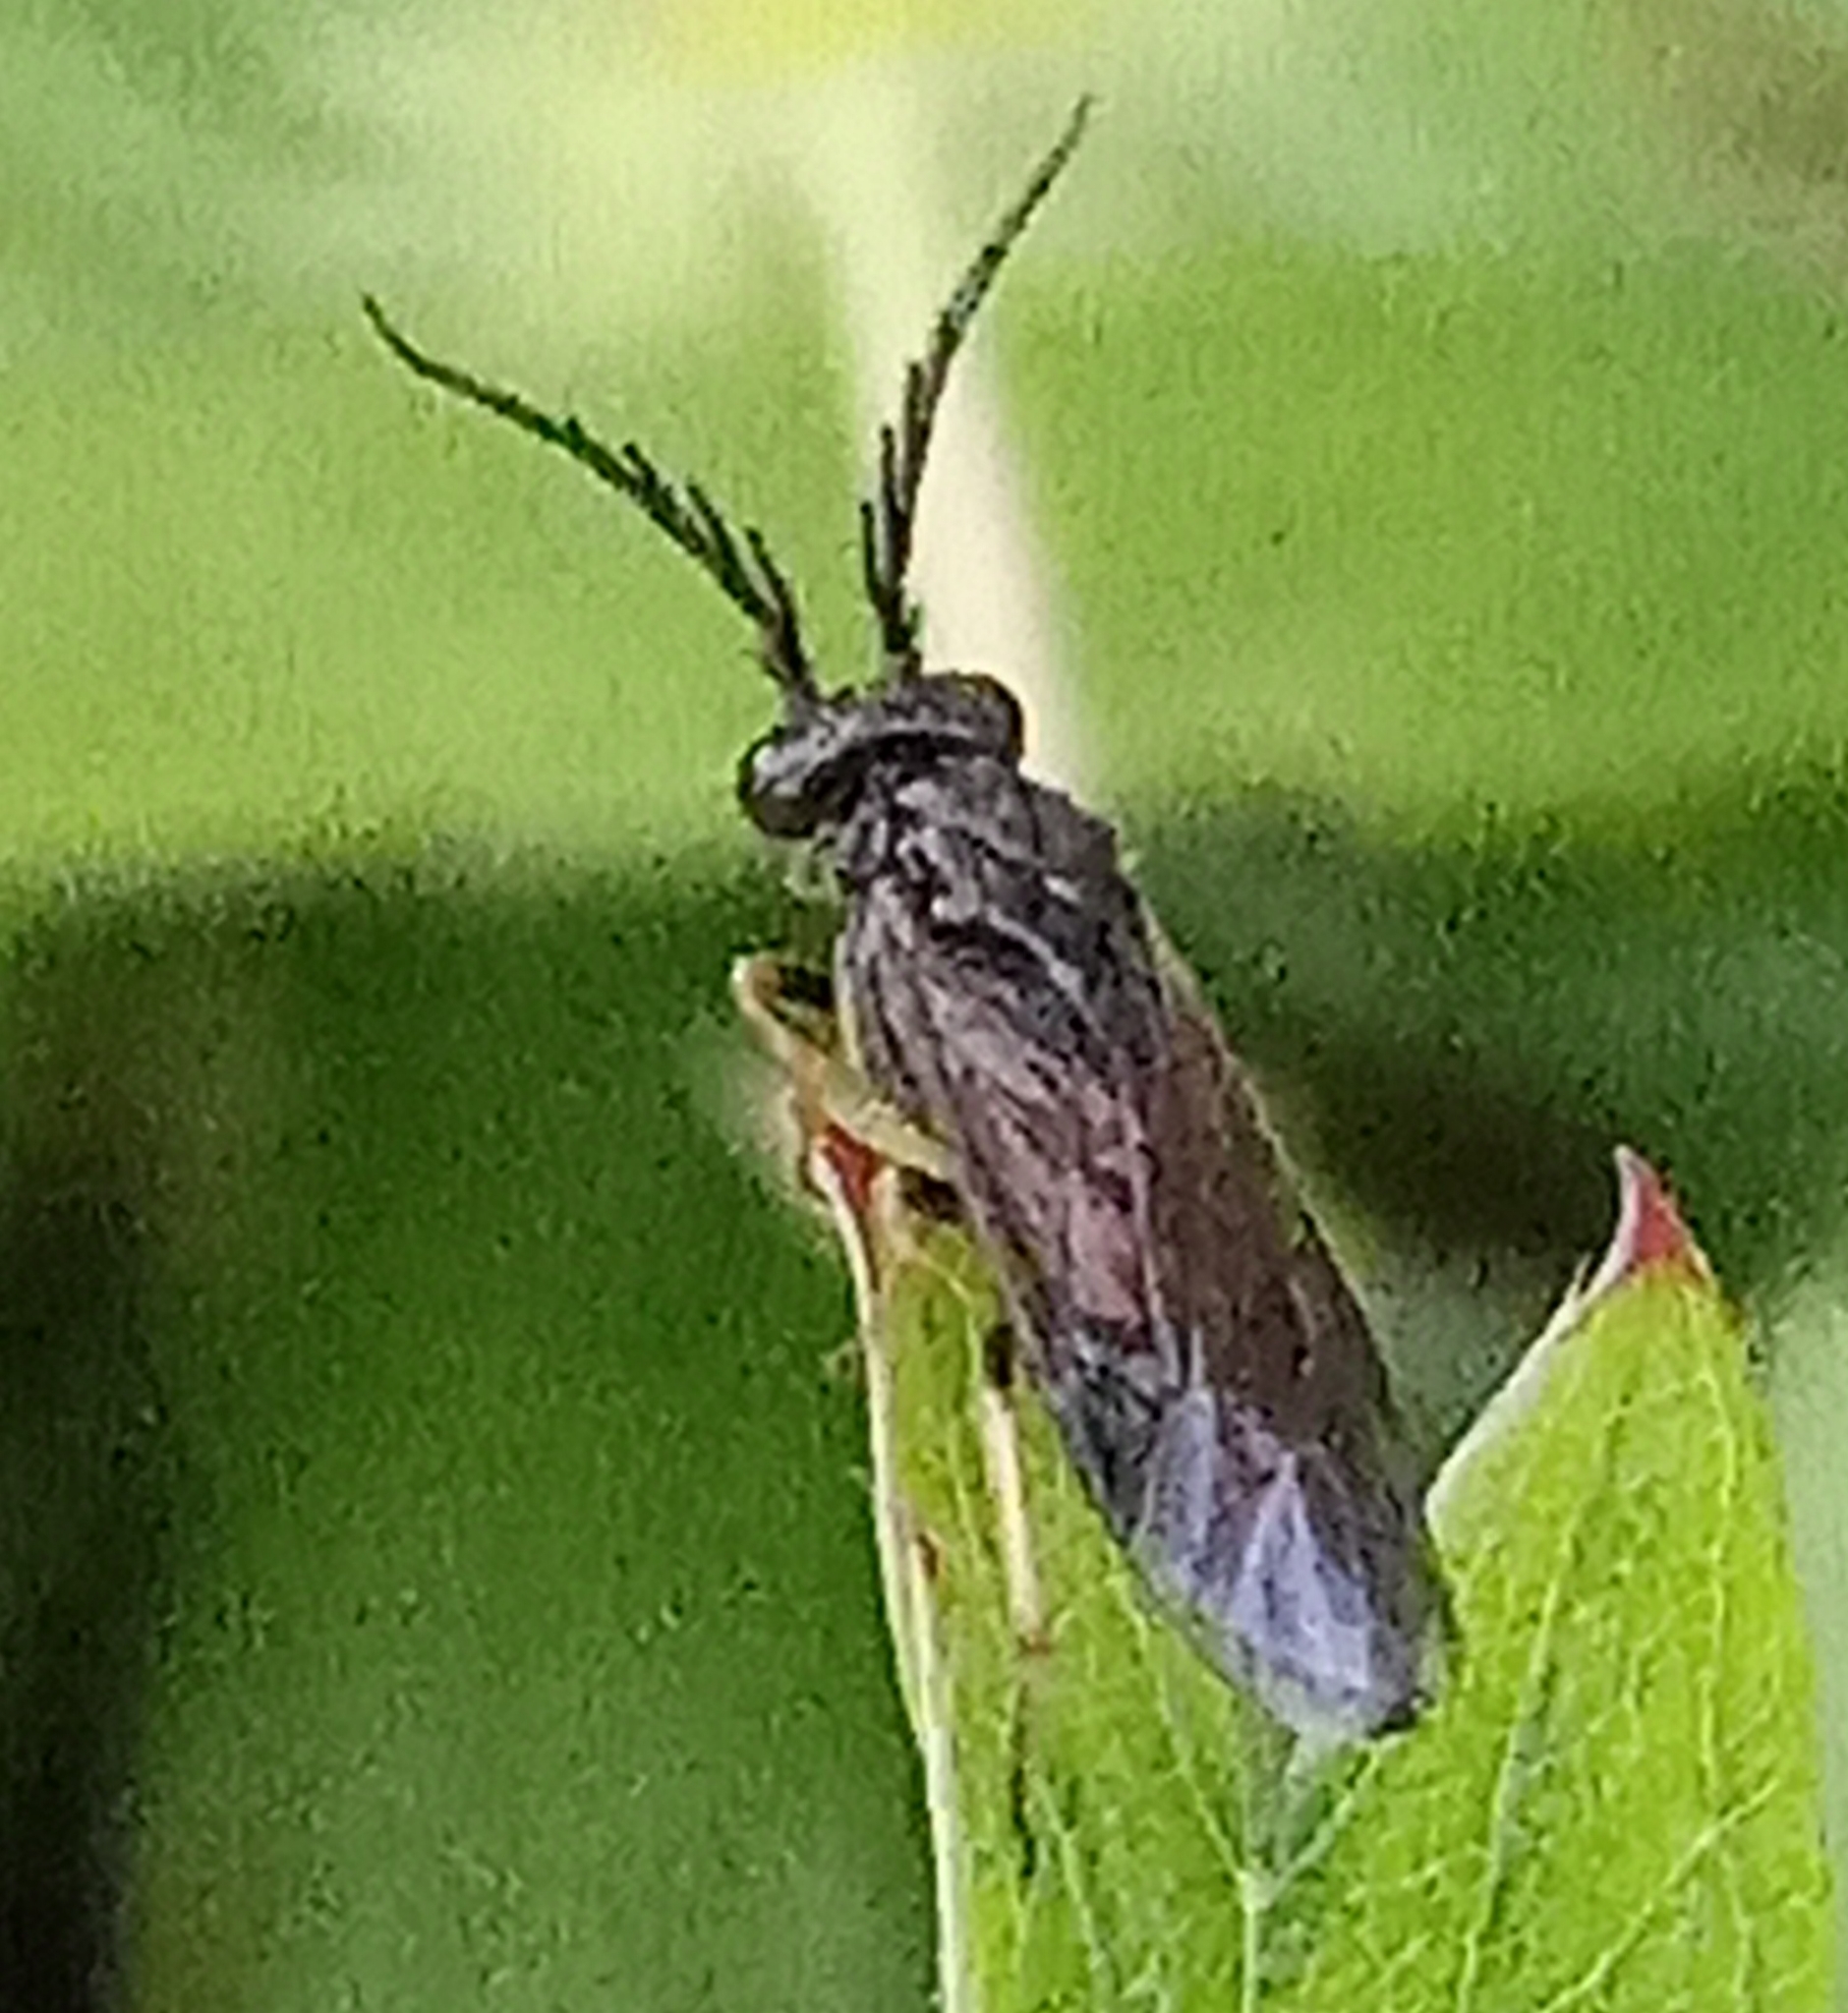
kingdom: Animalia
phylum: Arthropoda
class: Insecta
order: Hymenoptera
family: Tenthredinidae
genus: Cladius
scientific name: Cladius pectinicornis
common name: Sawfly
